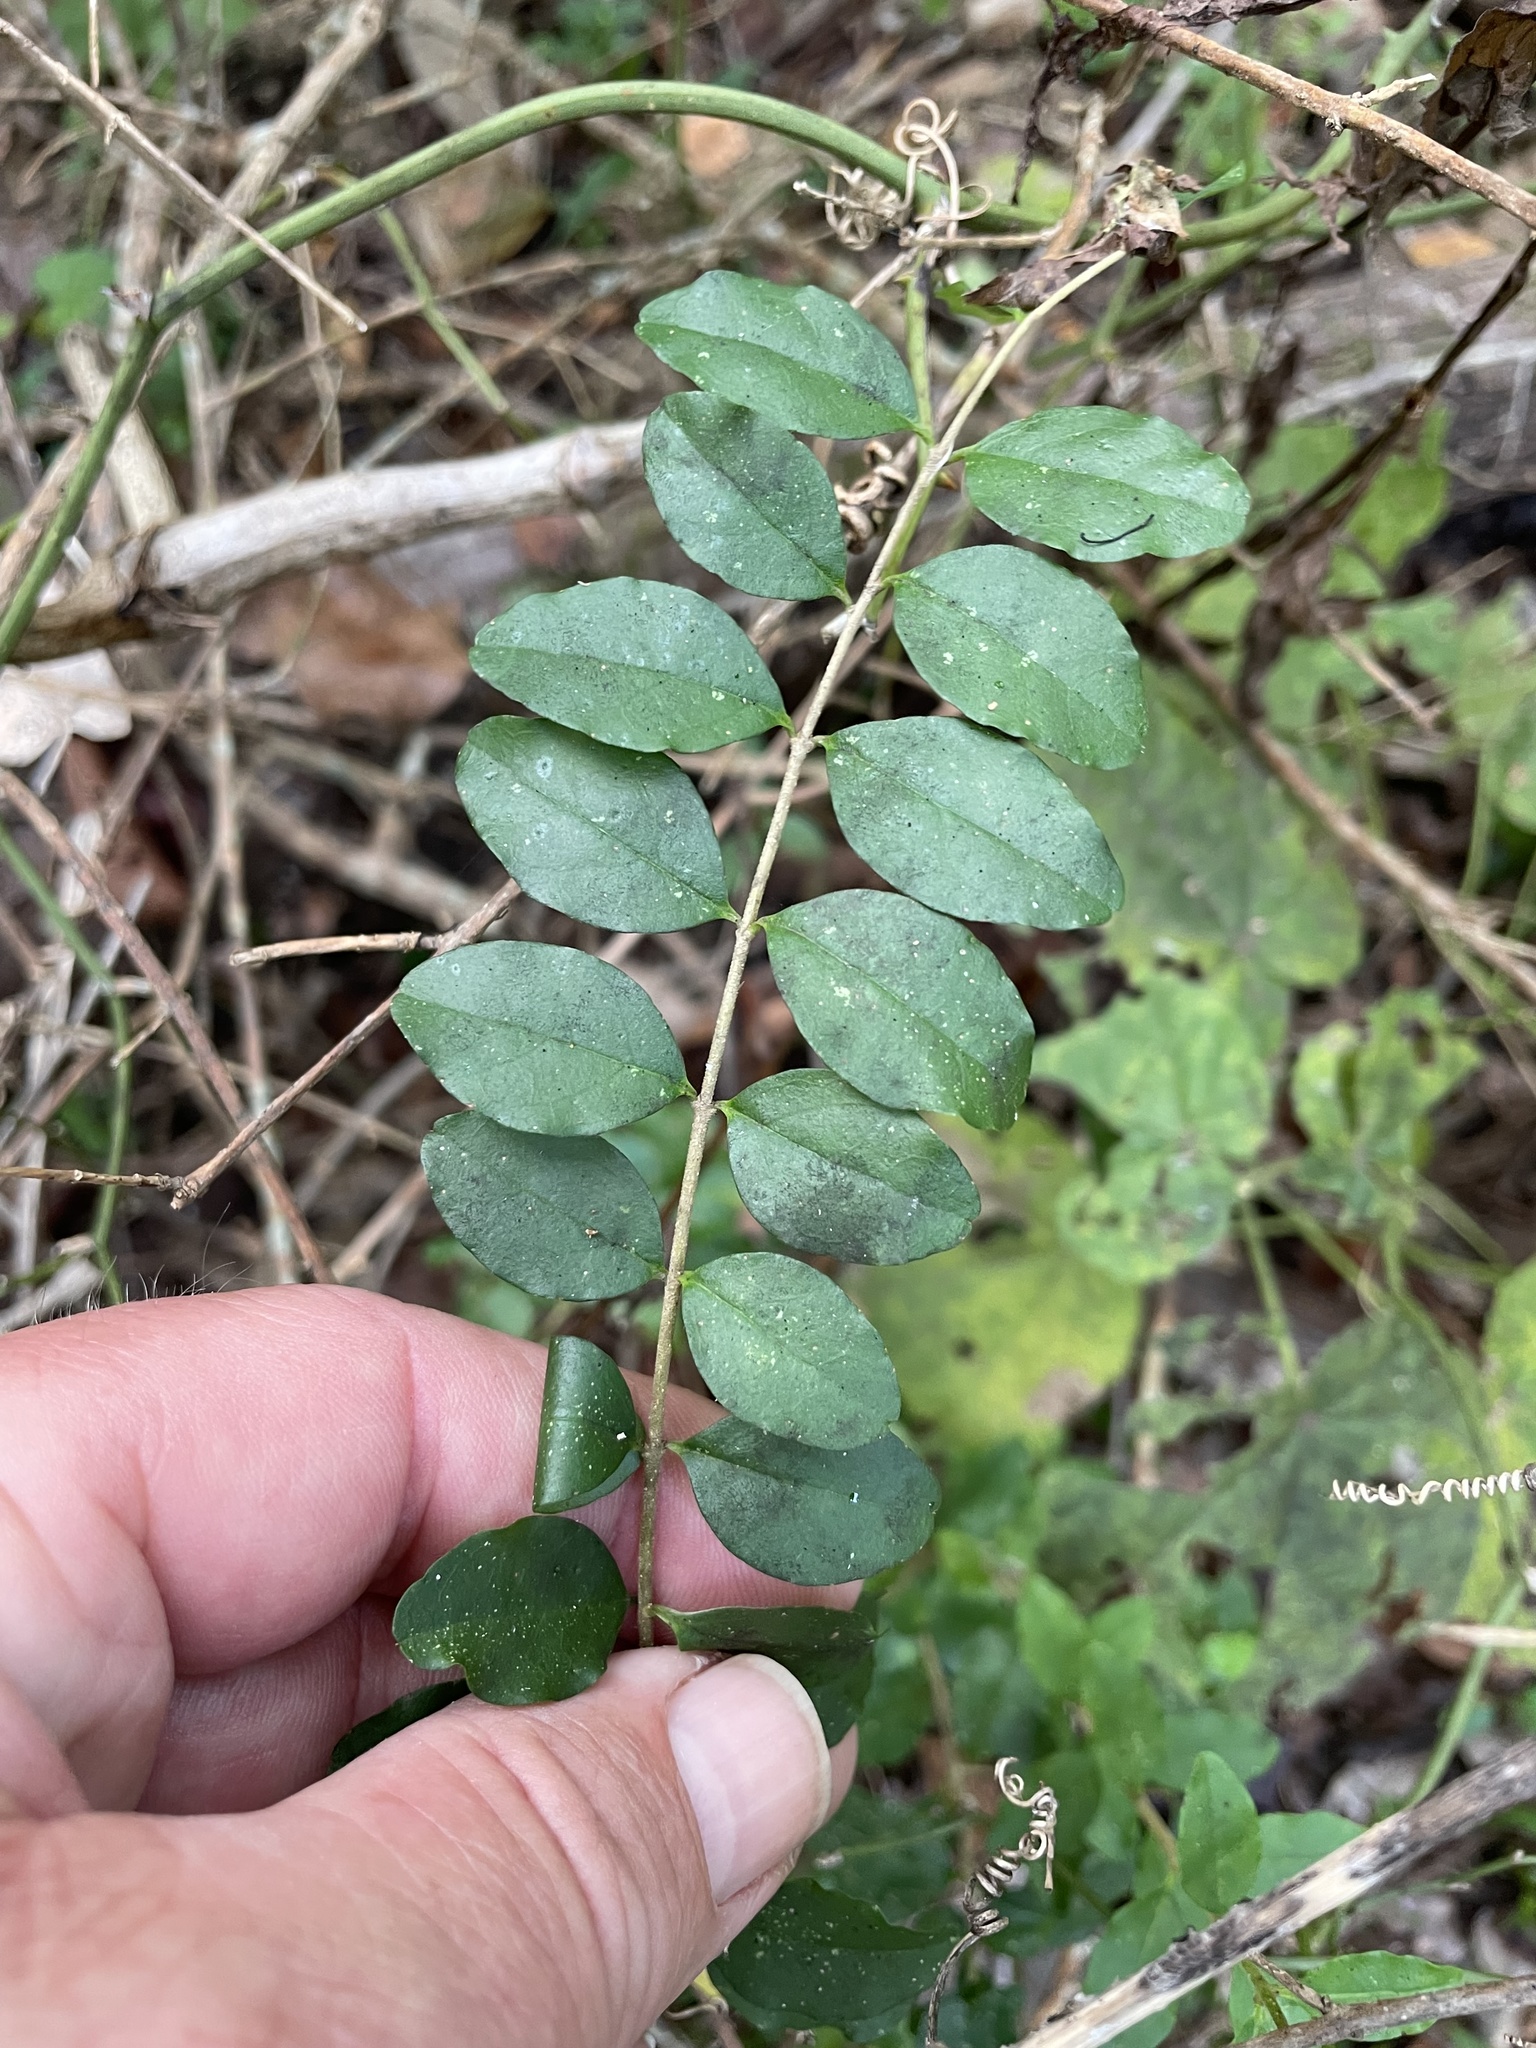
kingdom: Plantae
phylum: Tracheophyta
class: Magnoliopsida
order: Lamiales
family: Oleaceae
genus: Ligustrum
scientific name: Ligustrum sinense
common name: Chinese privet
